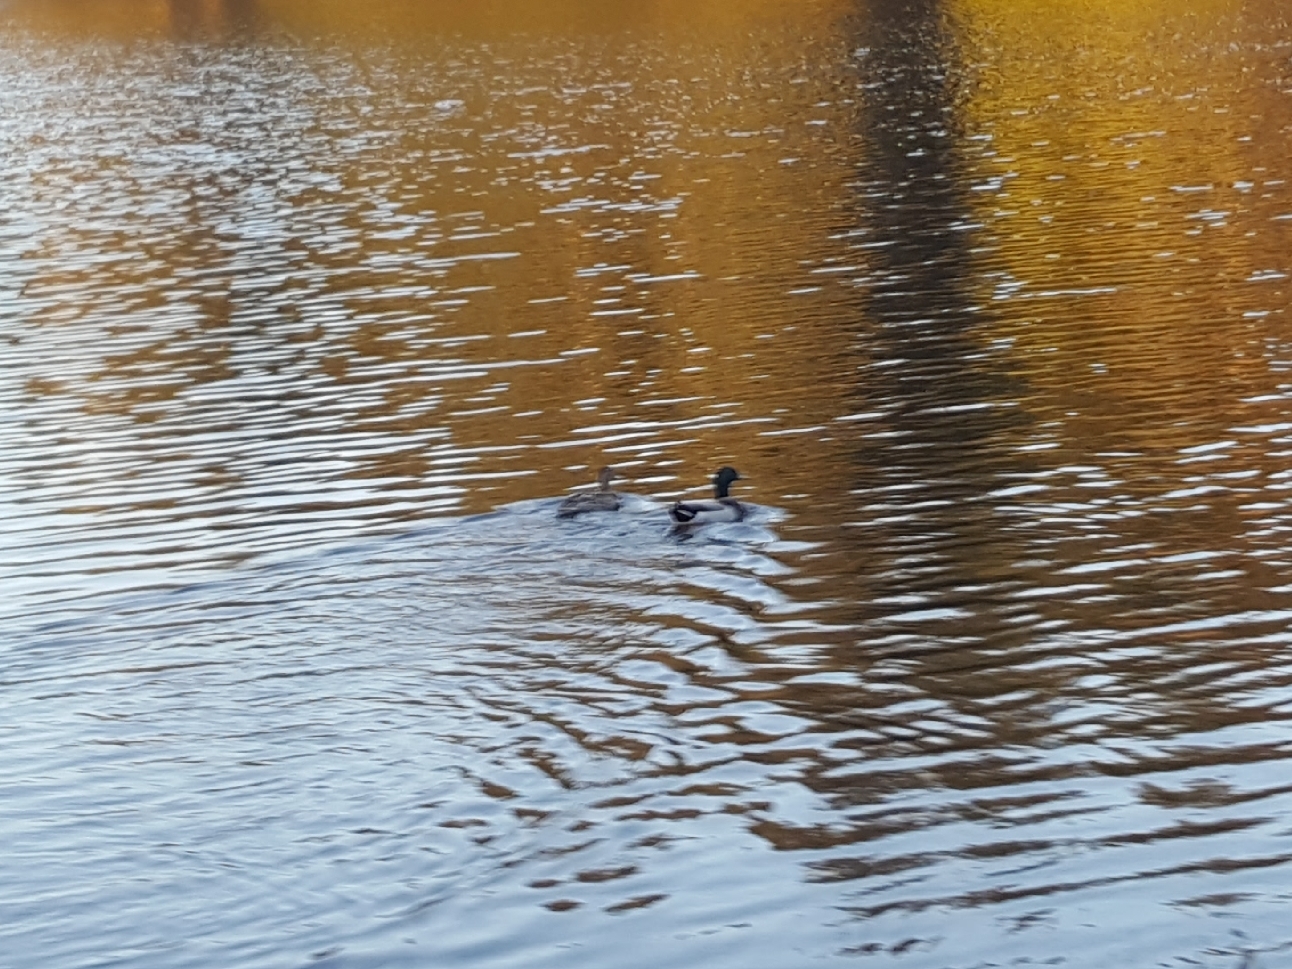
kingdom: Animalia
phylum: Chordata
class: Aves
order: Anseriformes
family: Anatidae
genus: Anas
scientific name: Anas platyrhynchos
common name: Mallard
